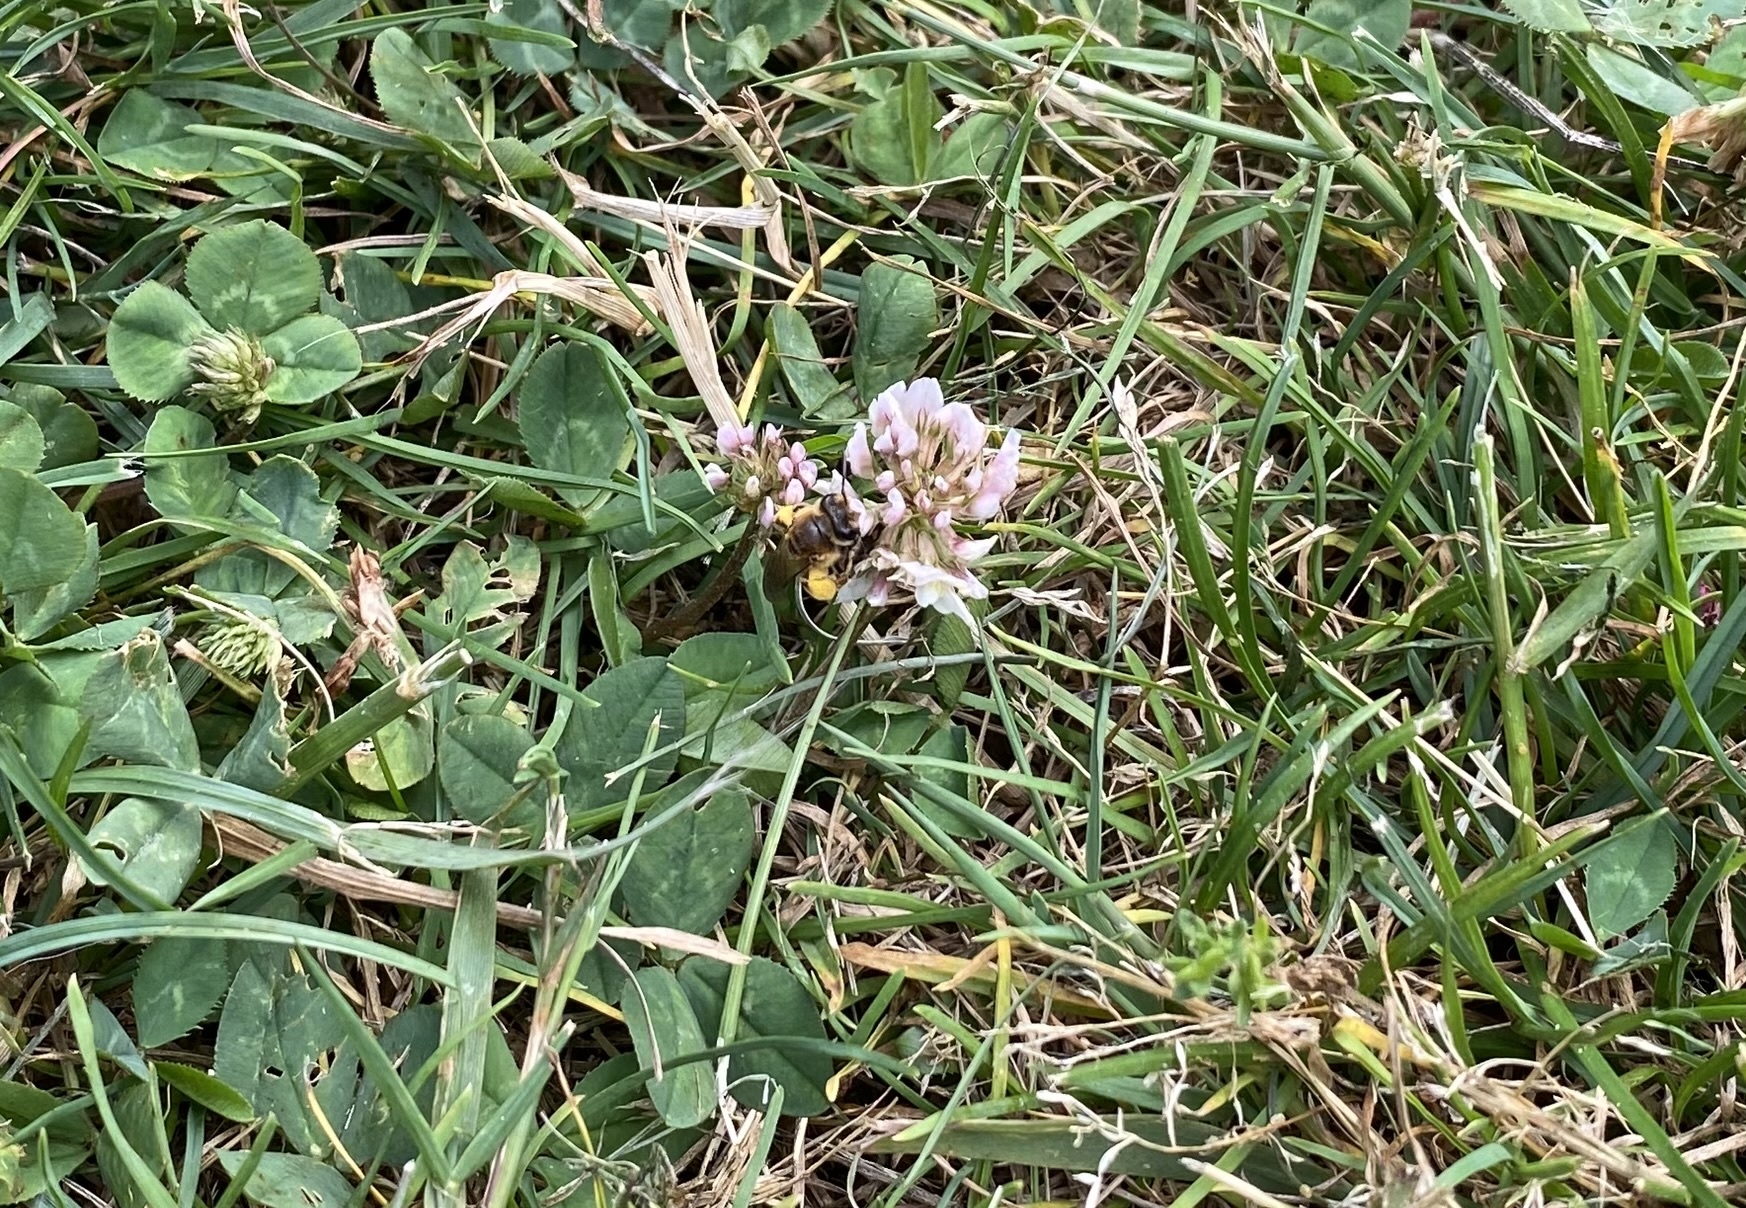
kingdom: Animalia
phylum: Arthropoda
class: Insecta
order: Hymenoptera
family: Andrenidae
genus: Andrena
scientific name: Andrena wilkella
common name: Wilke's mining bee
